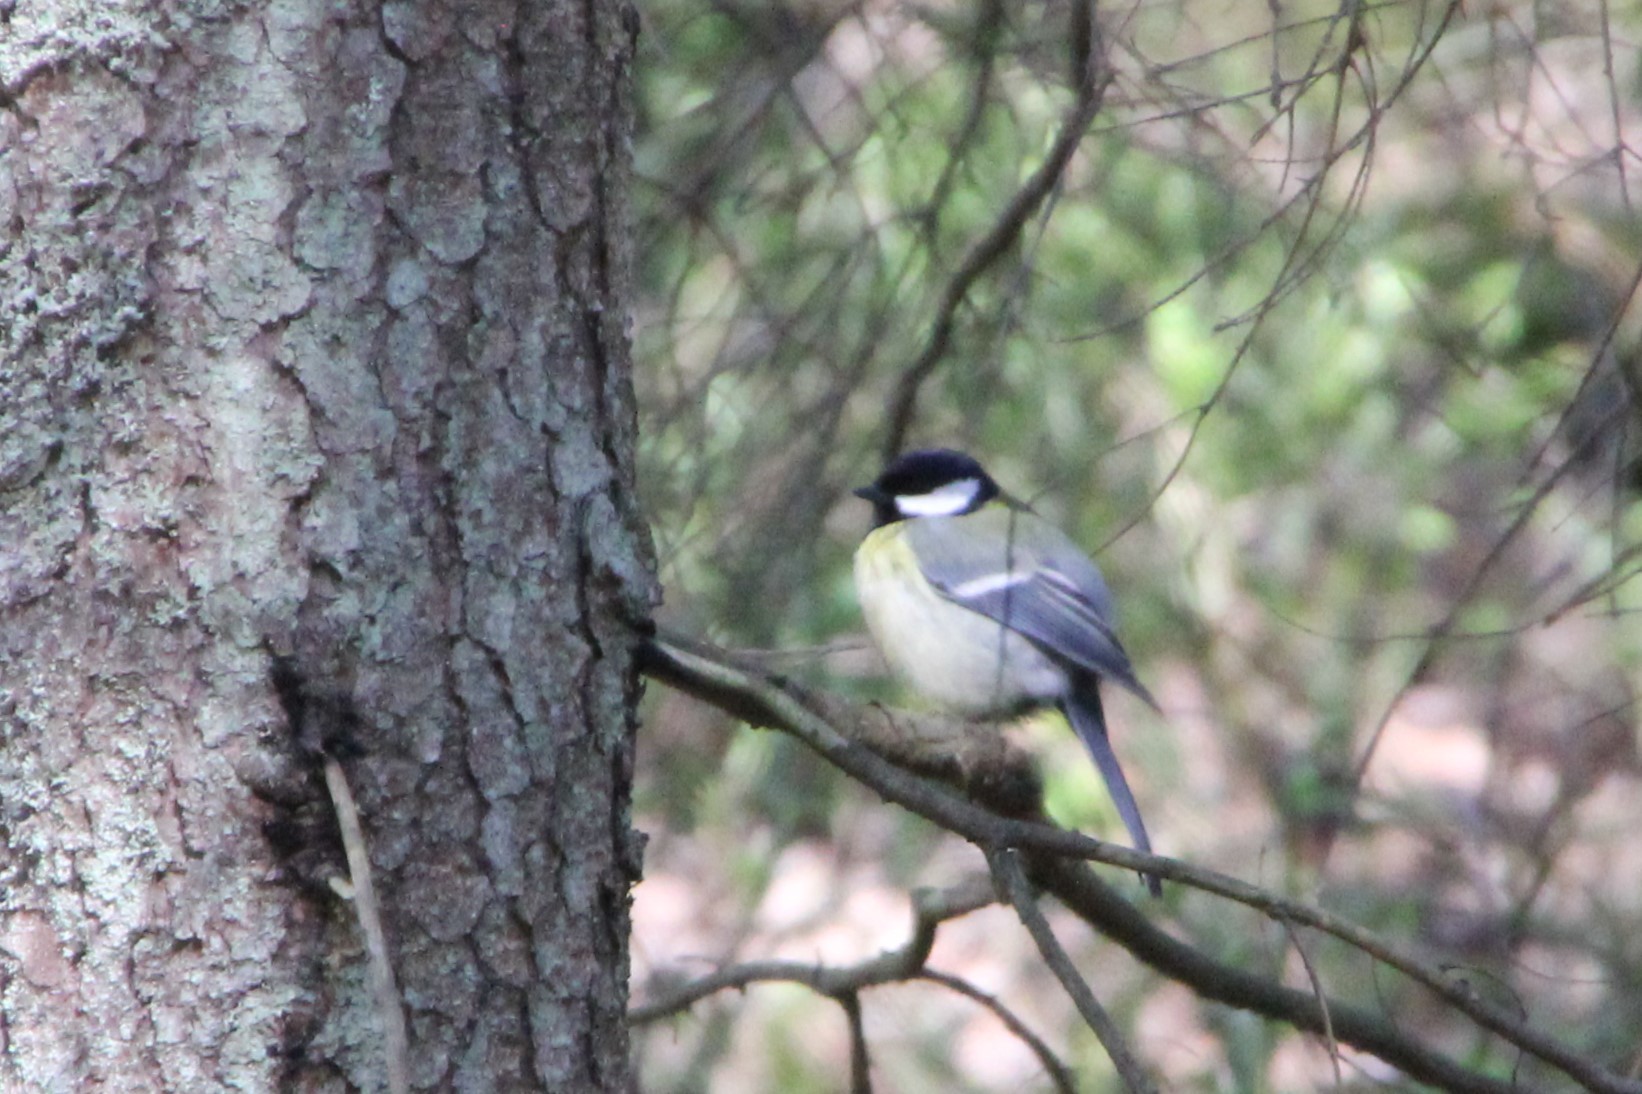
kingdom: Animalia
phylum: Chordata
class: Aves
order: Passeriformes
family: Paridae
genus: Parus
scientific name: Parus major
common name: Great tit
